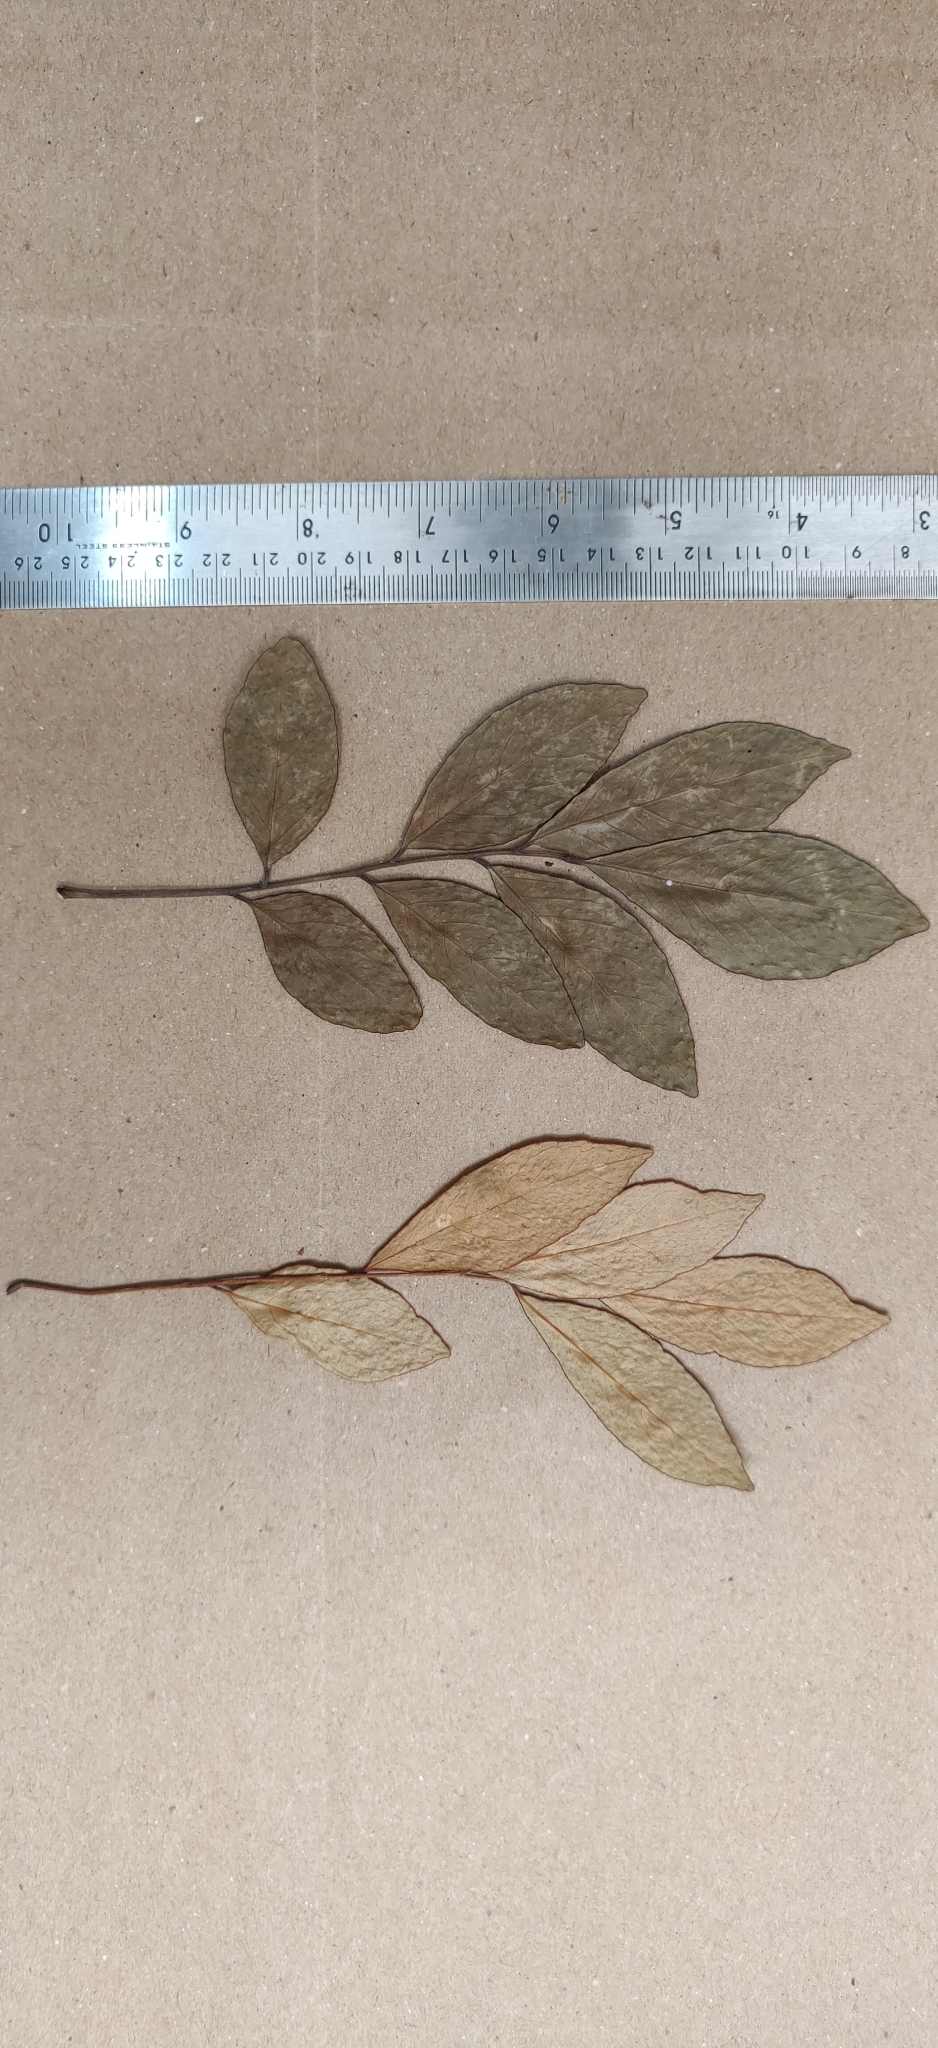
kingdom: Plantae
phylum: Tracheophyta
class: Magnoliopsida
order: Sapindales
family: Rutaceae
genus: Murraya
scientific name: Murraya paniculata
